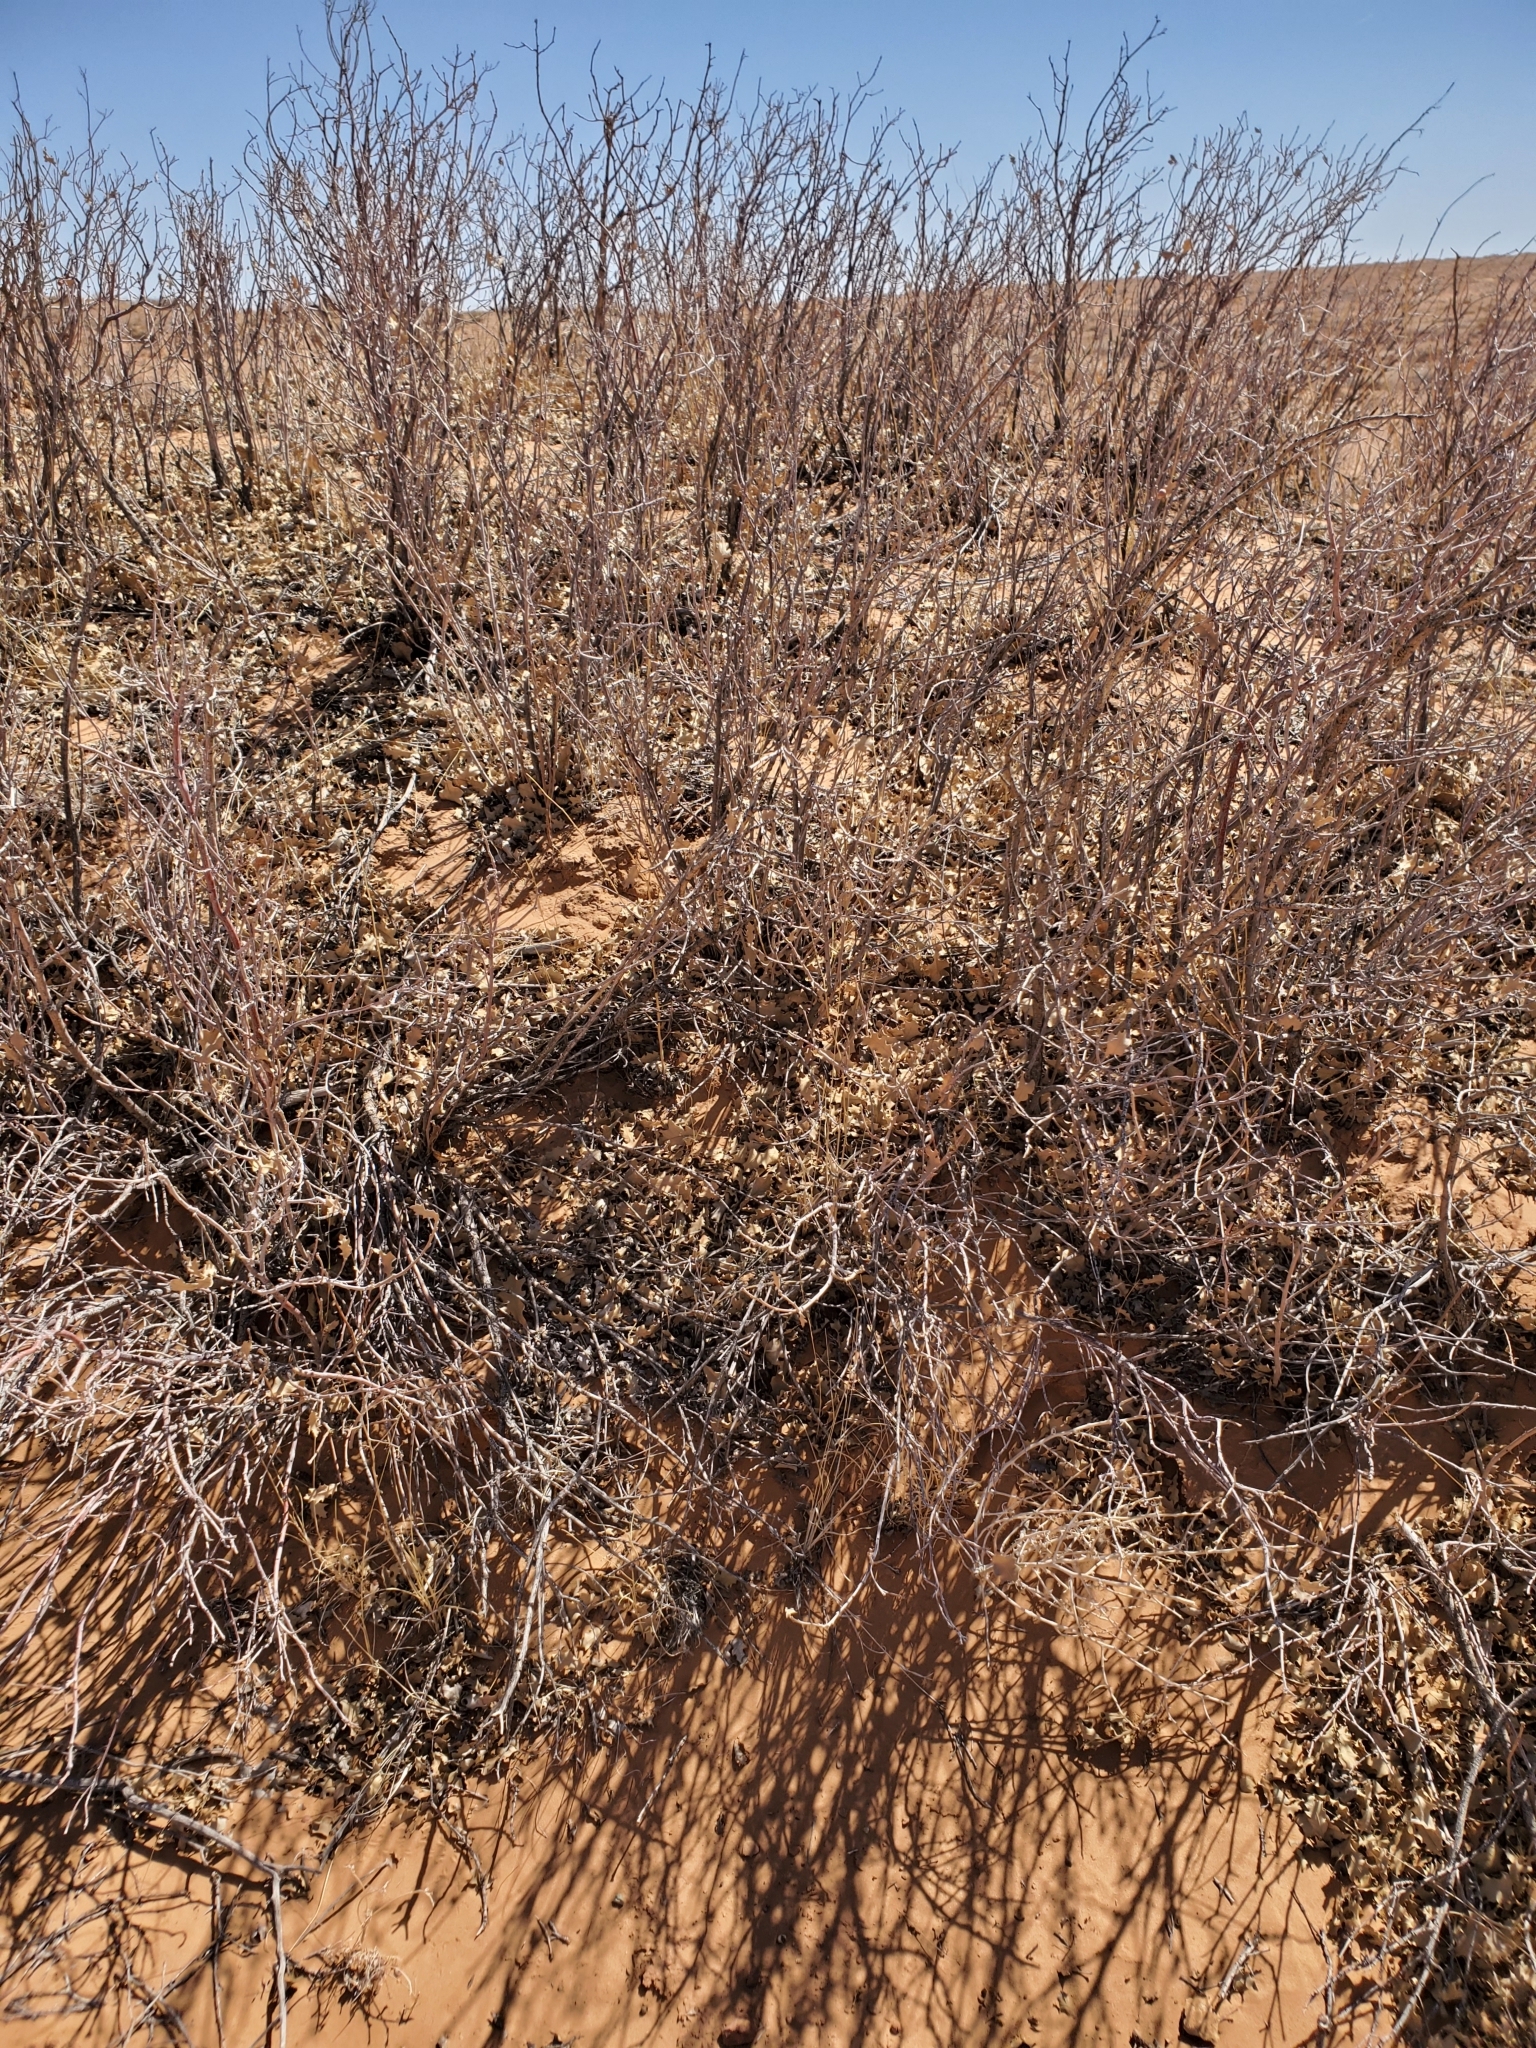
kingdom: Plantae
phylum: Tracheophyta
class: Magnoliopsida
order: Fagales
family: Fagaceae
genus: Quercus
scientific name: Quercus welshii
